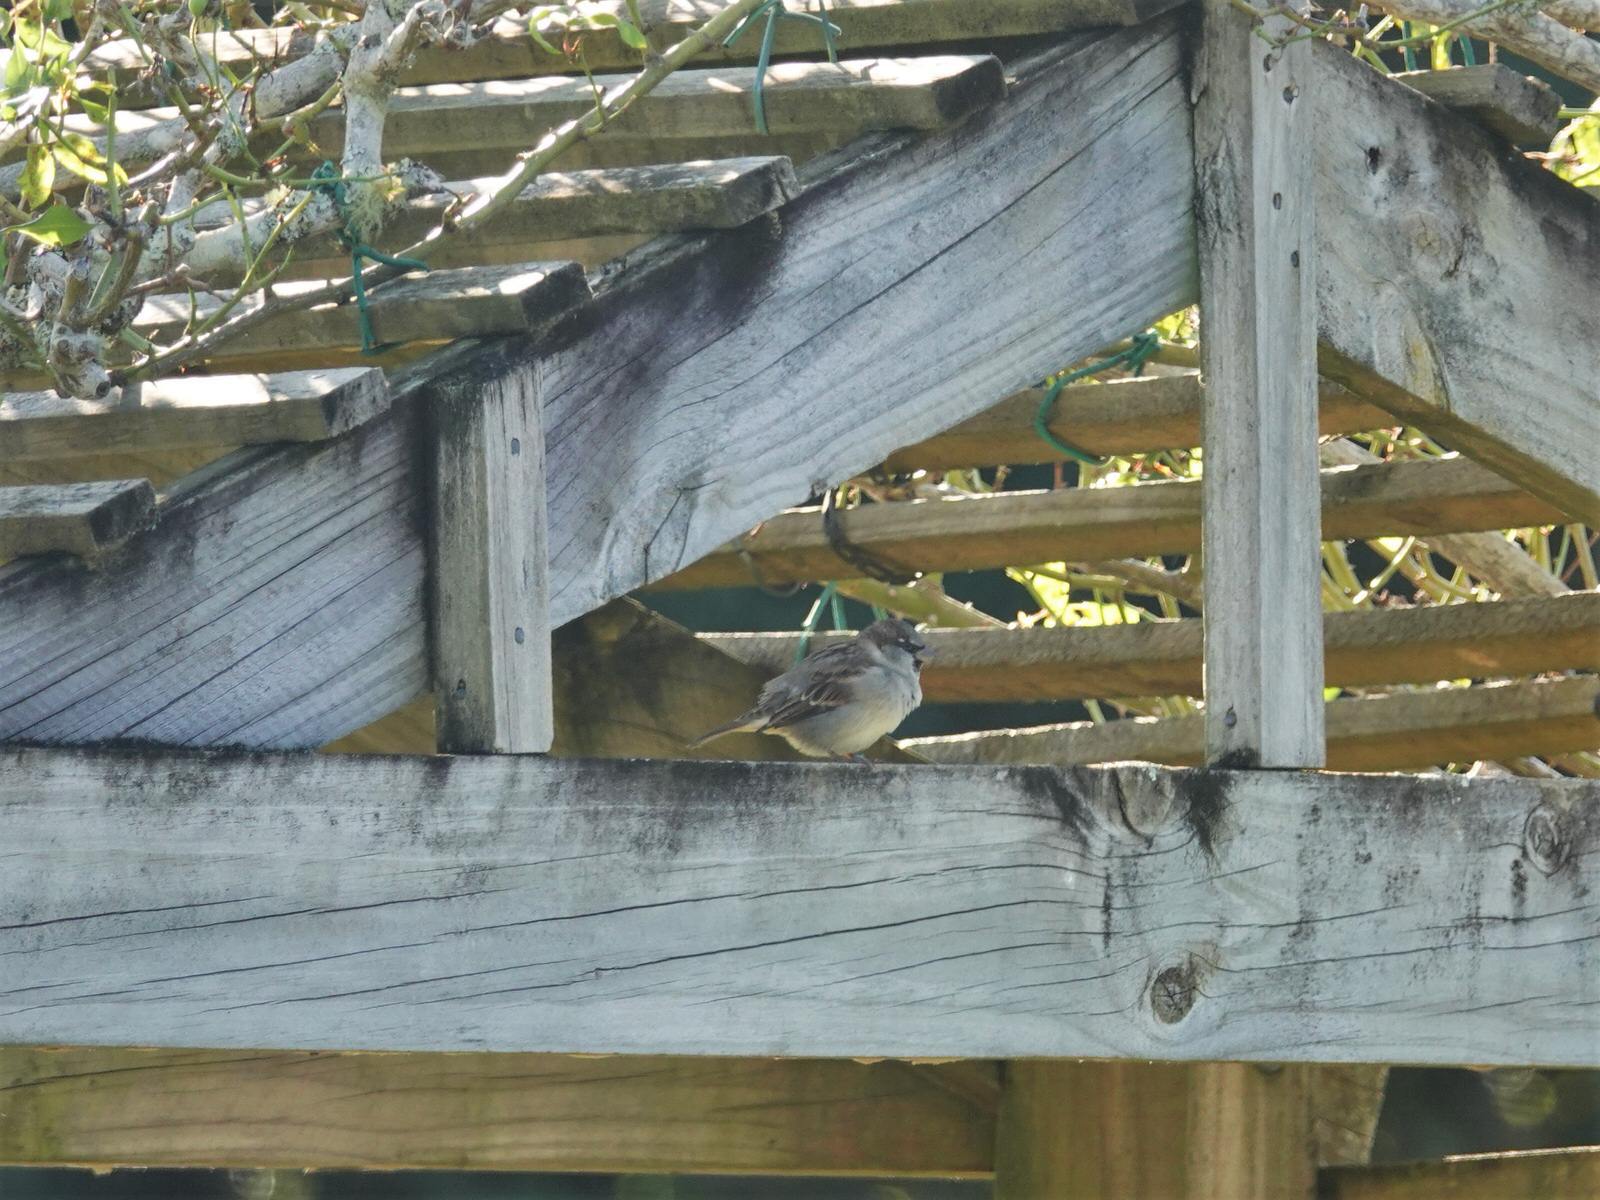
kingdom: Animalia
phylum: Chordata
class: Aves
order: Passeriformes
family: Passeridae
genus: Passer
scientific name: Passer domesticus
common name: House sparrow
